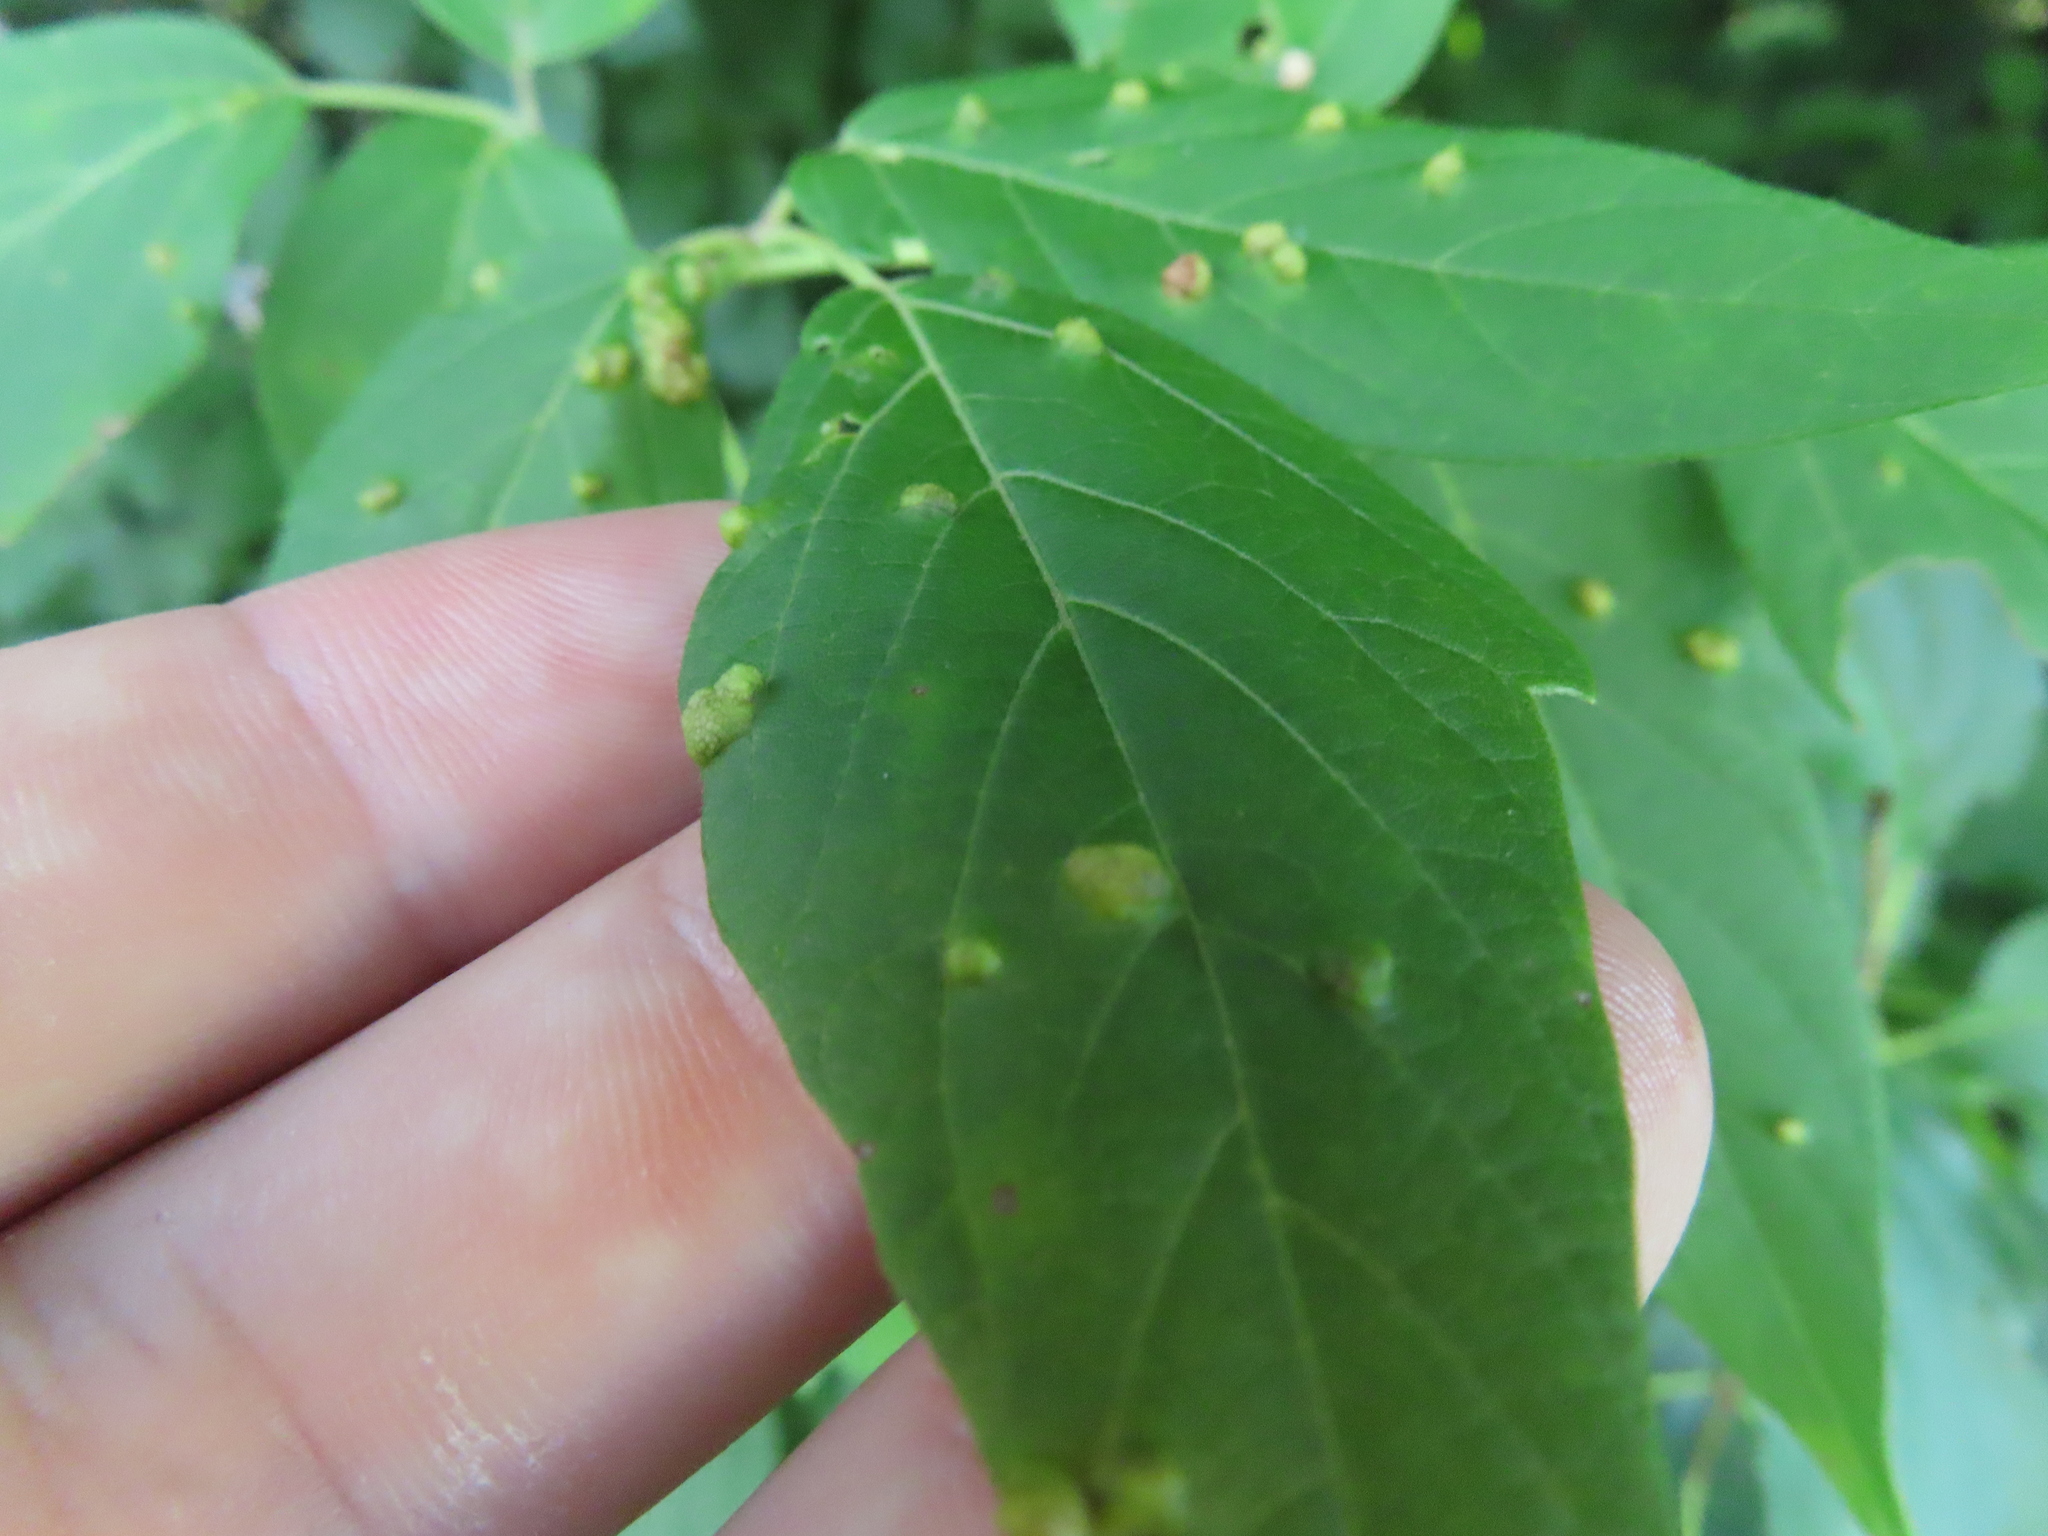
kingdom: Animalia
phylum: Arthropoda
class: Arachnida
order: Trombidiformes
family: Eriophyidae
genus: Aceria
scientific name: Aceria
